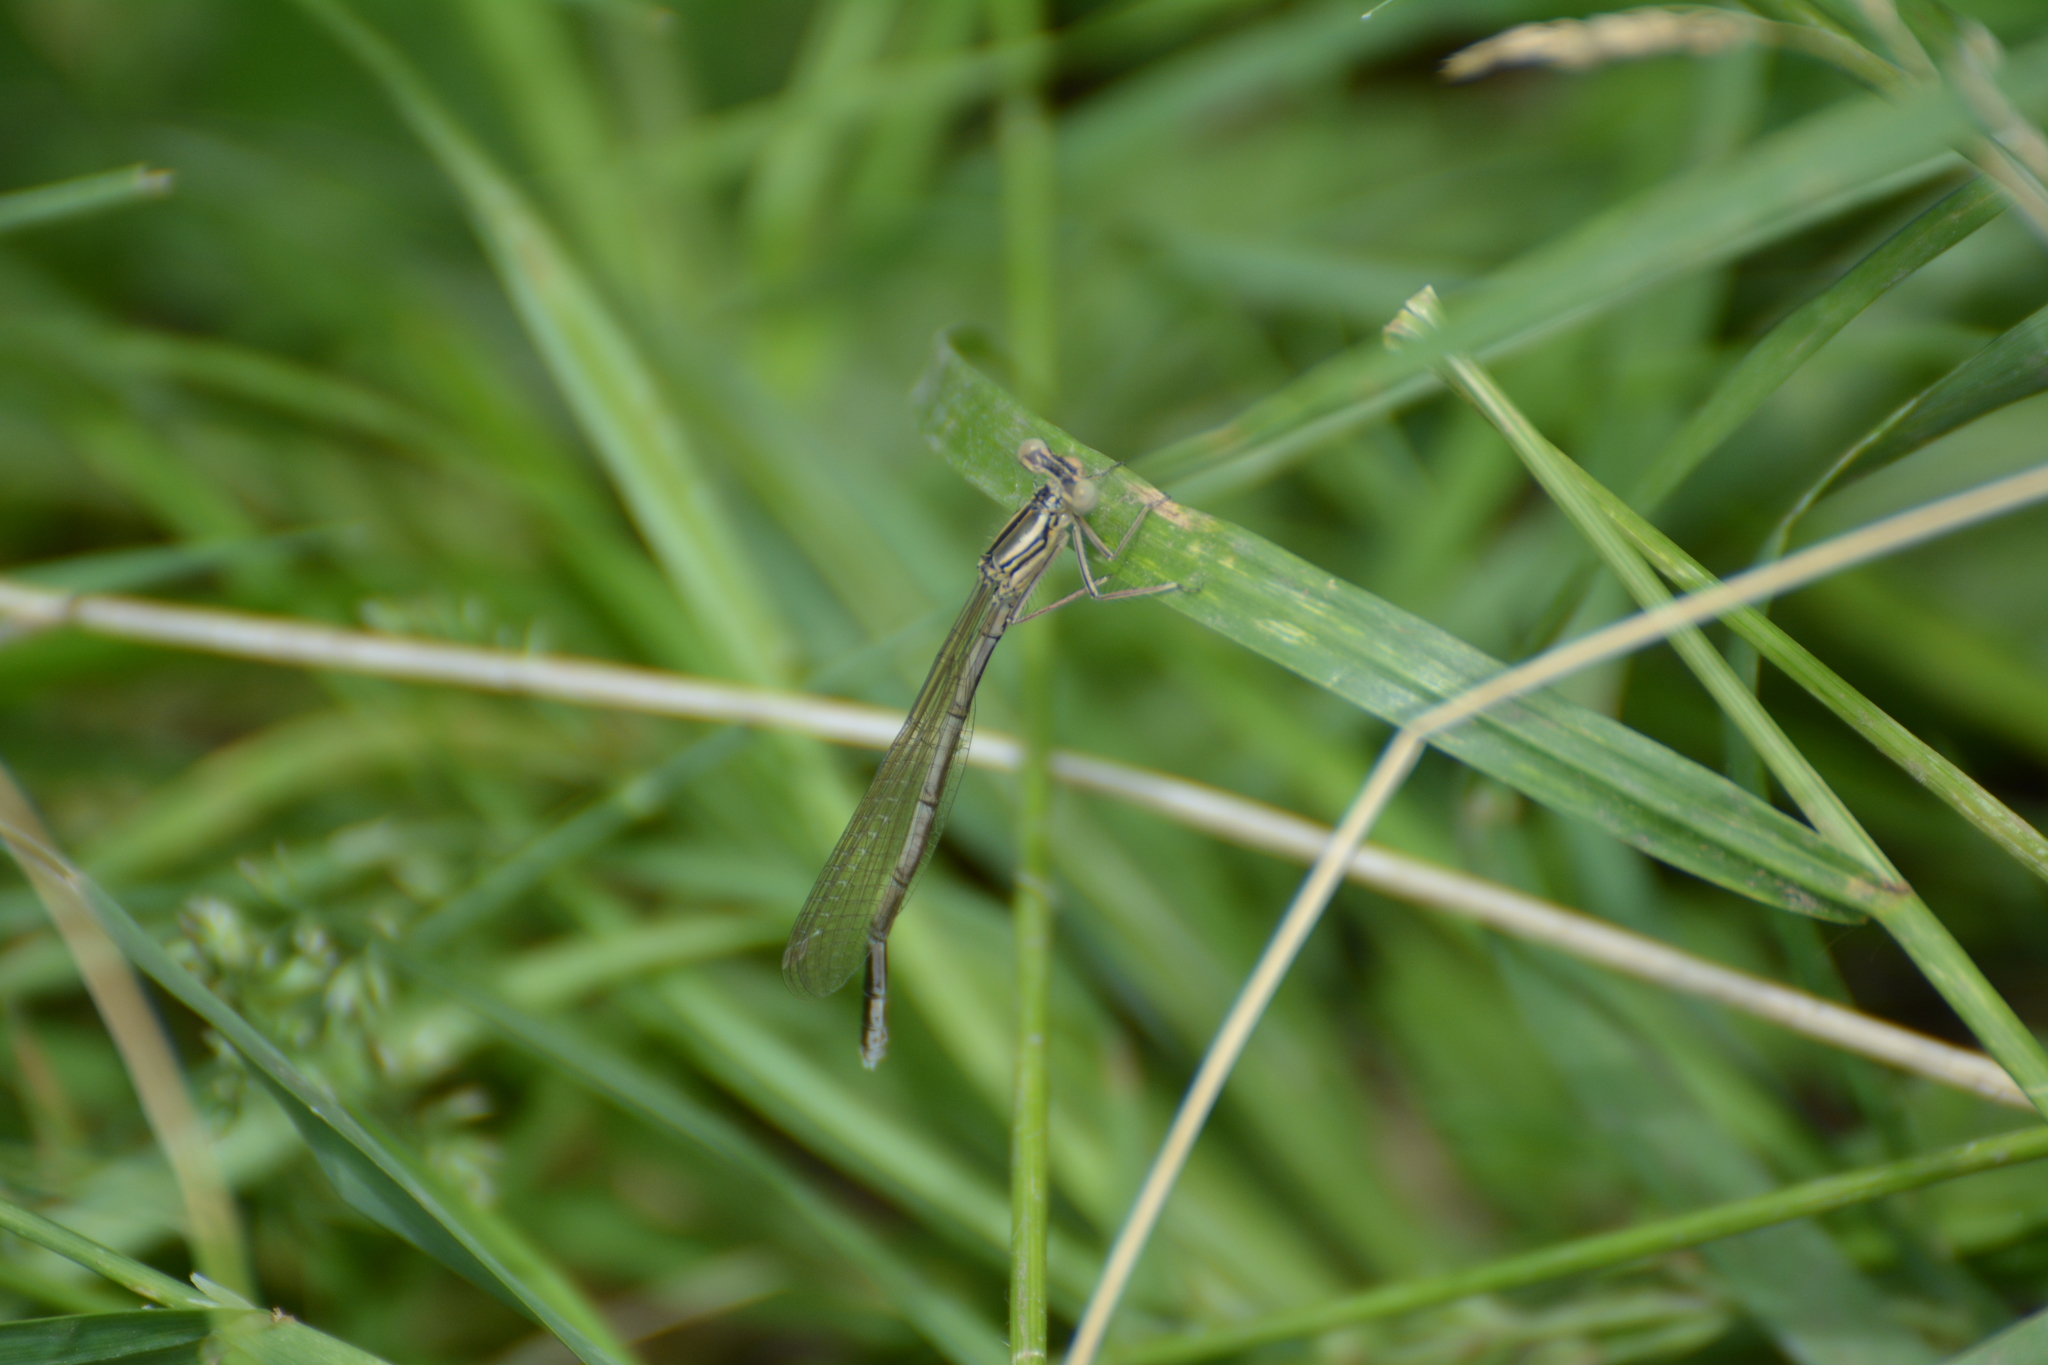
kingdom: Animalia
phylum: Arthropoda
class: Insecta
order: Odonata
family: Platycnemididae
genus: Platycnemis
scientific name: Platycnemis pennipes
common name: White-legged damselfly
